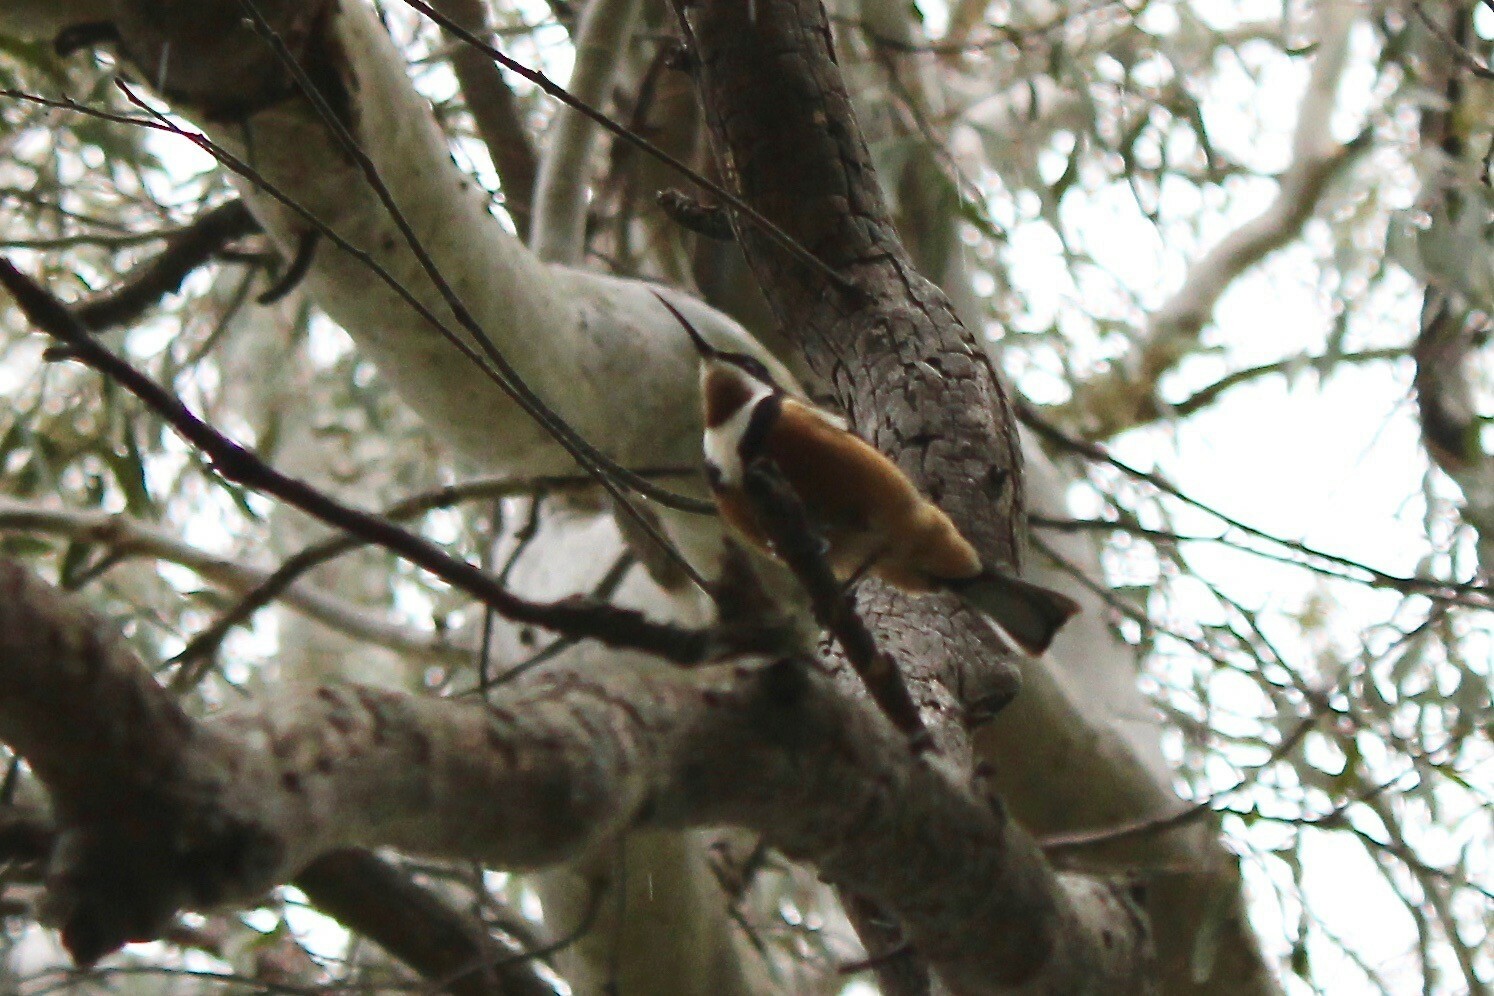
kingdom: Animalia
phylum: Chordata
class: Aves
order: Passeriformes
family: Meliphagidae
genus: Acanthorhynchus
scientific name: Acanthorhynchus tenuirostris
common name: Eastern spinebill
